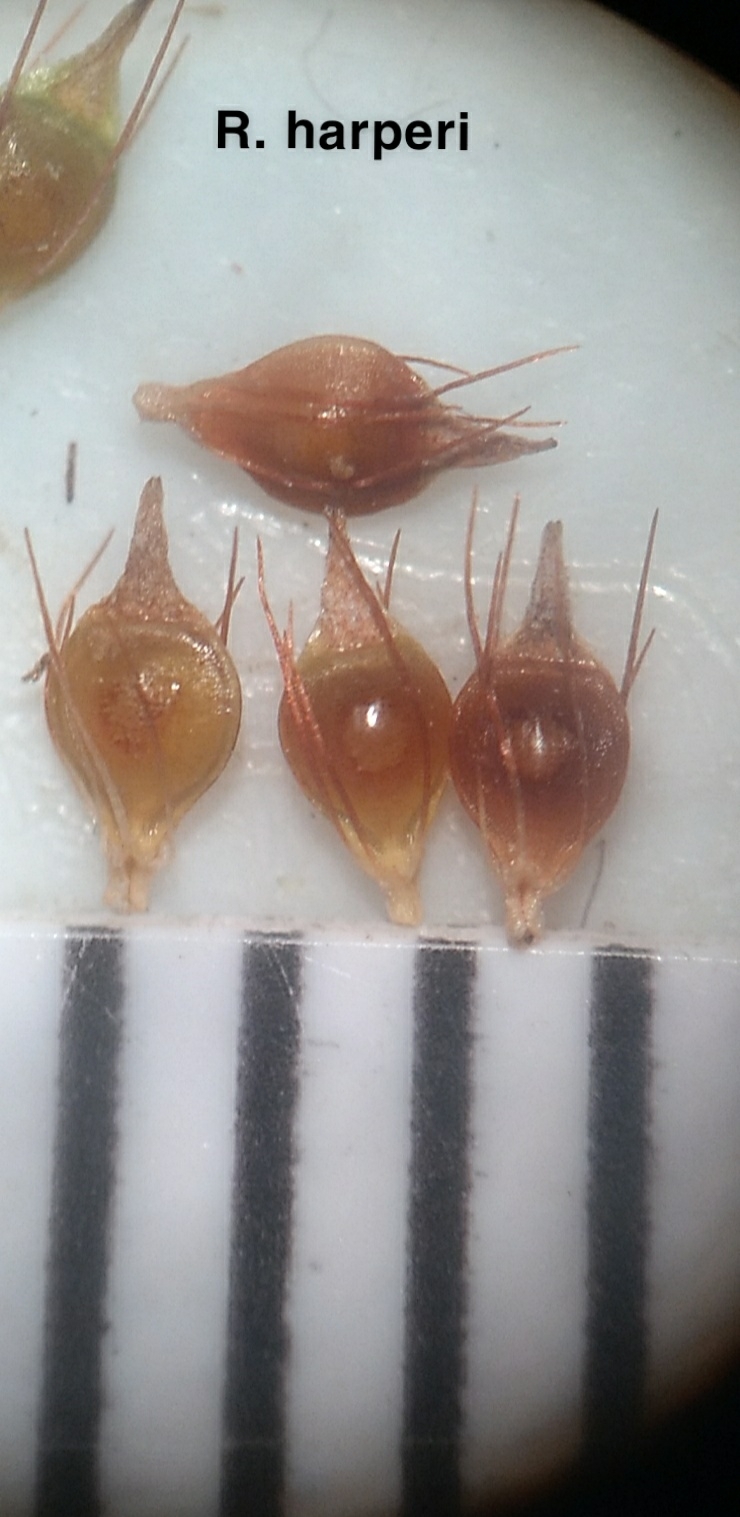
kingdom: Plantae
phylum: Tracheophyta
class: Liliopsida
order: Poales
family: Cyperaceae
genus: Rhynchospora
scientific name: Rhynchospora harperi
